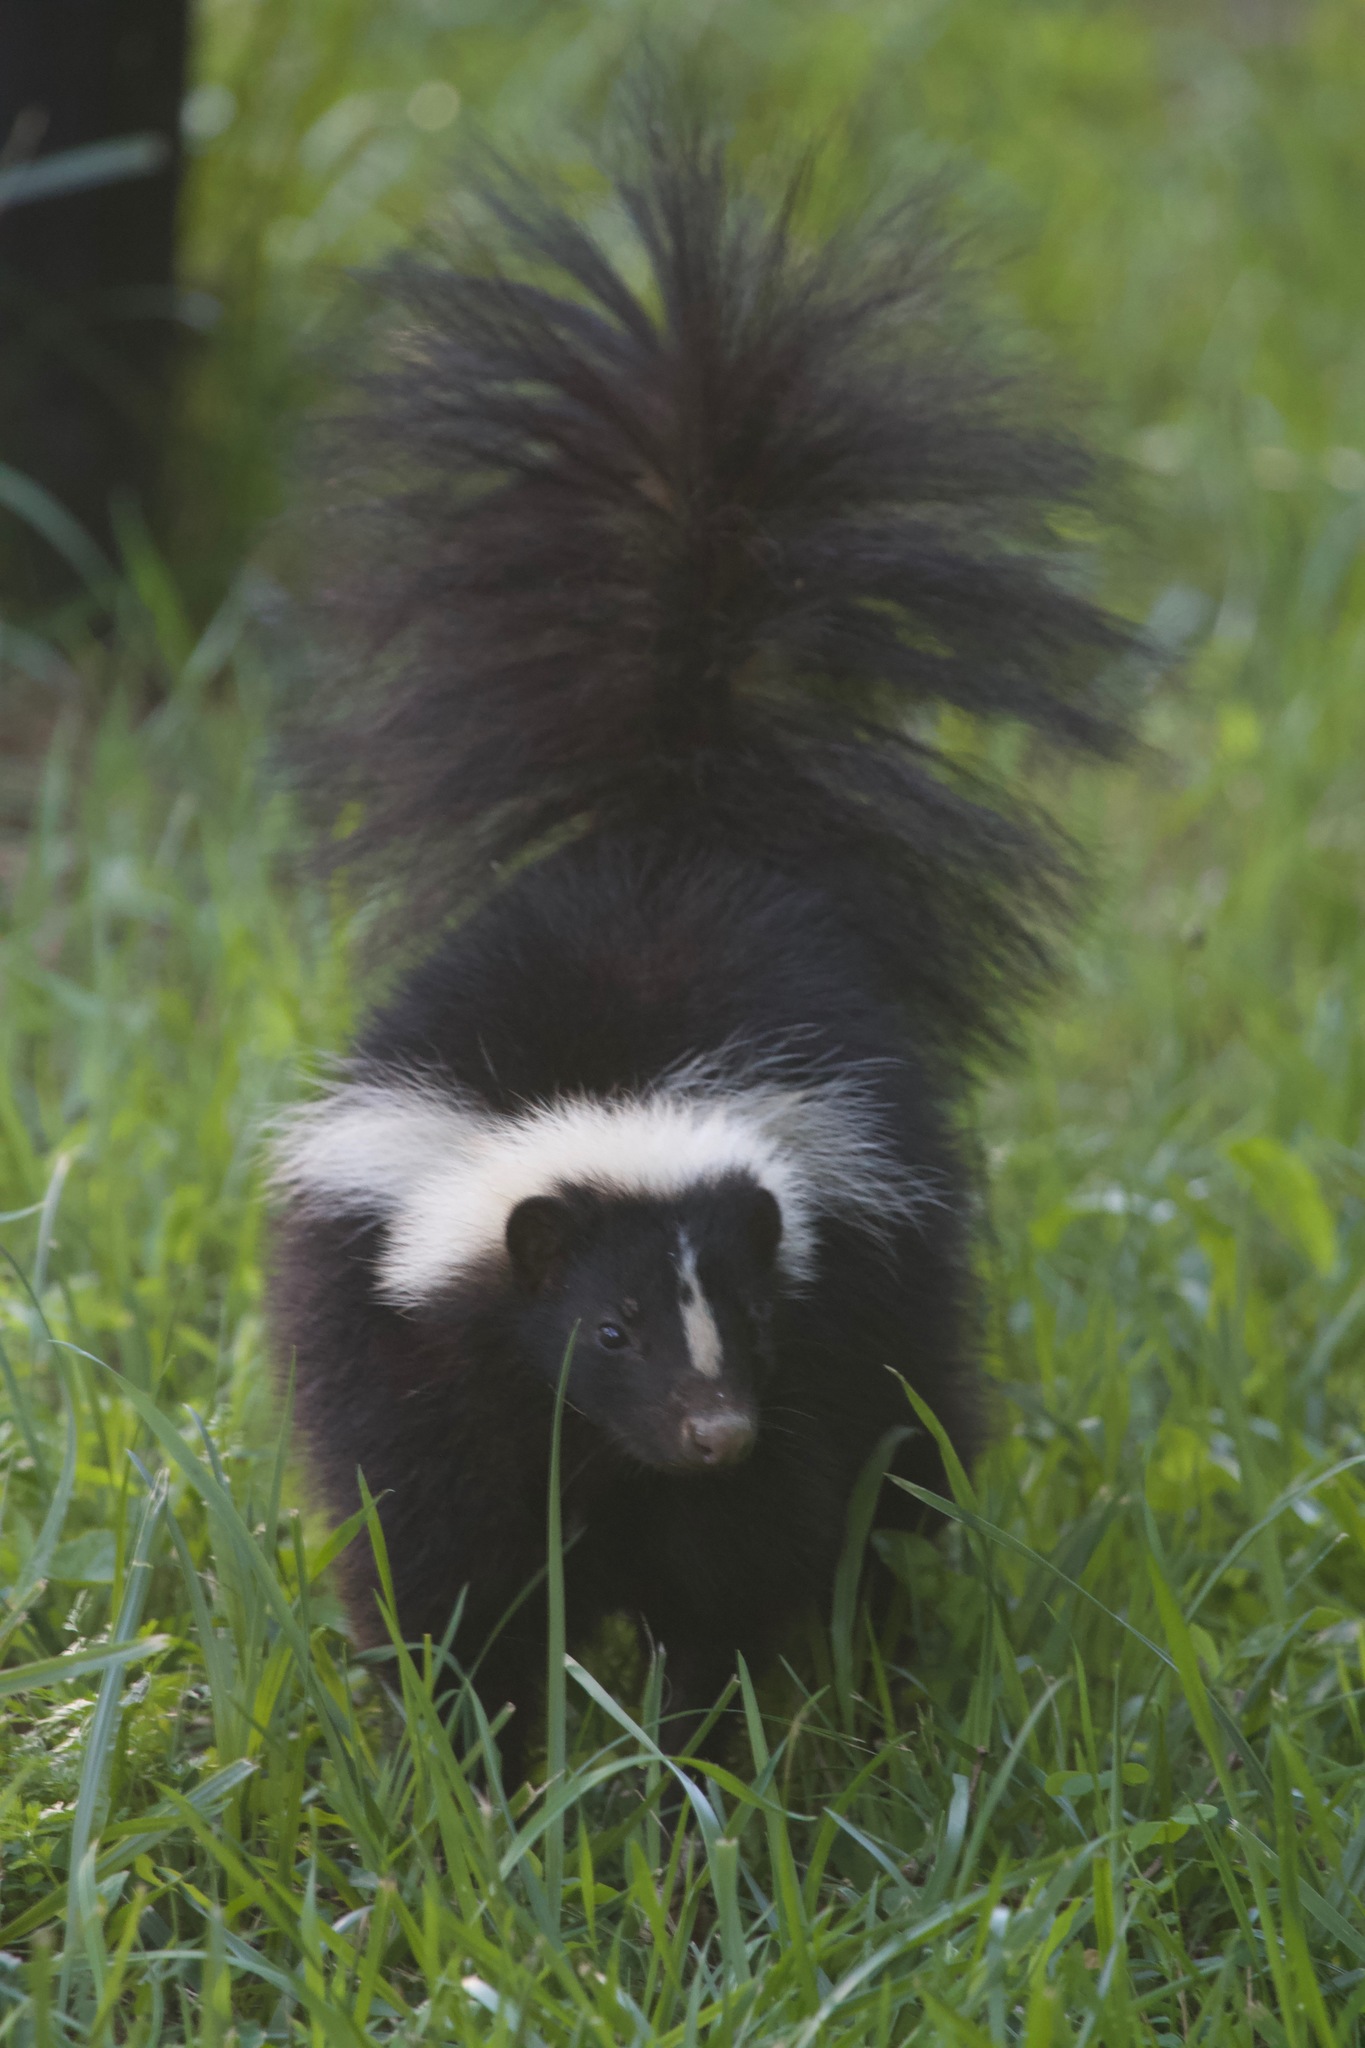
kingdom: Animalia
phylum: Chordata
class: Mammalia
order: Carnivora
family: Mephitidae
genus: Mephitis
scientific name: Mephitis mephitis
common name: Striped skunk
